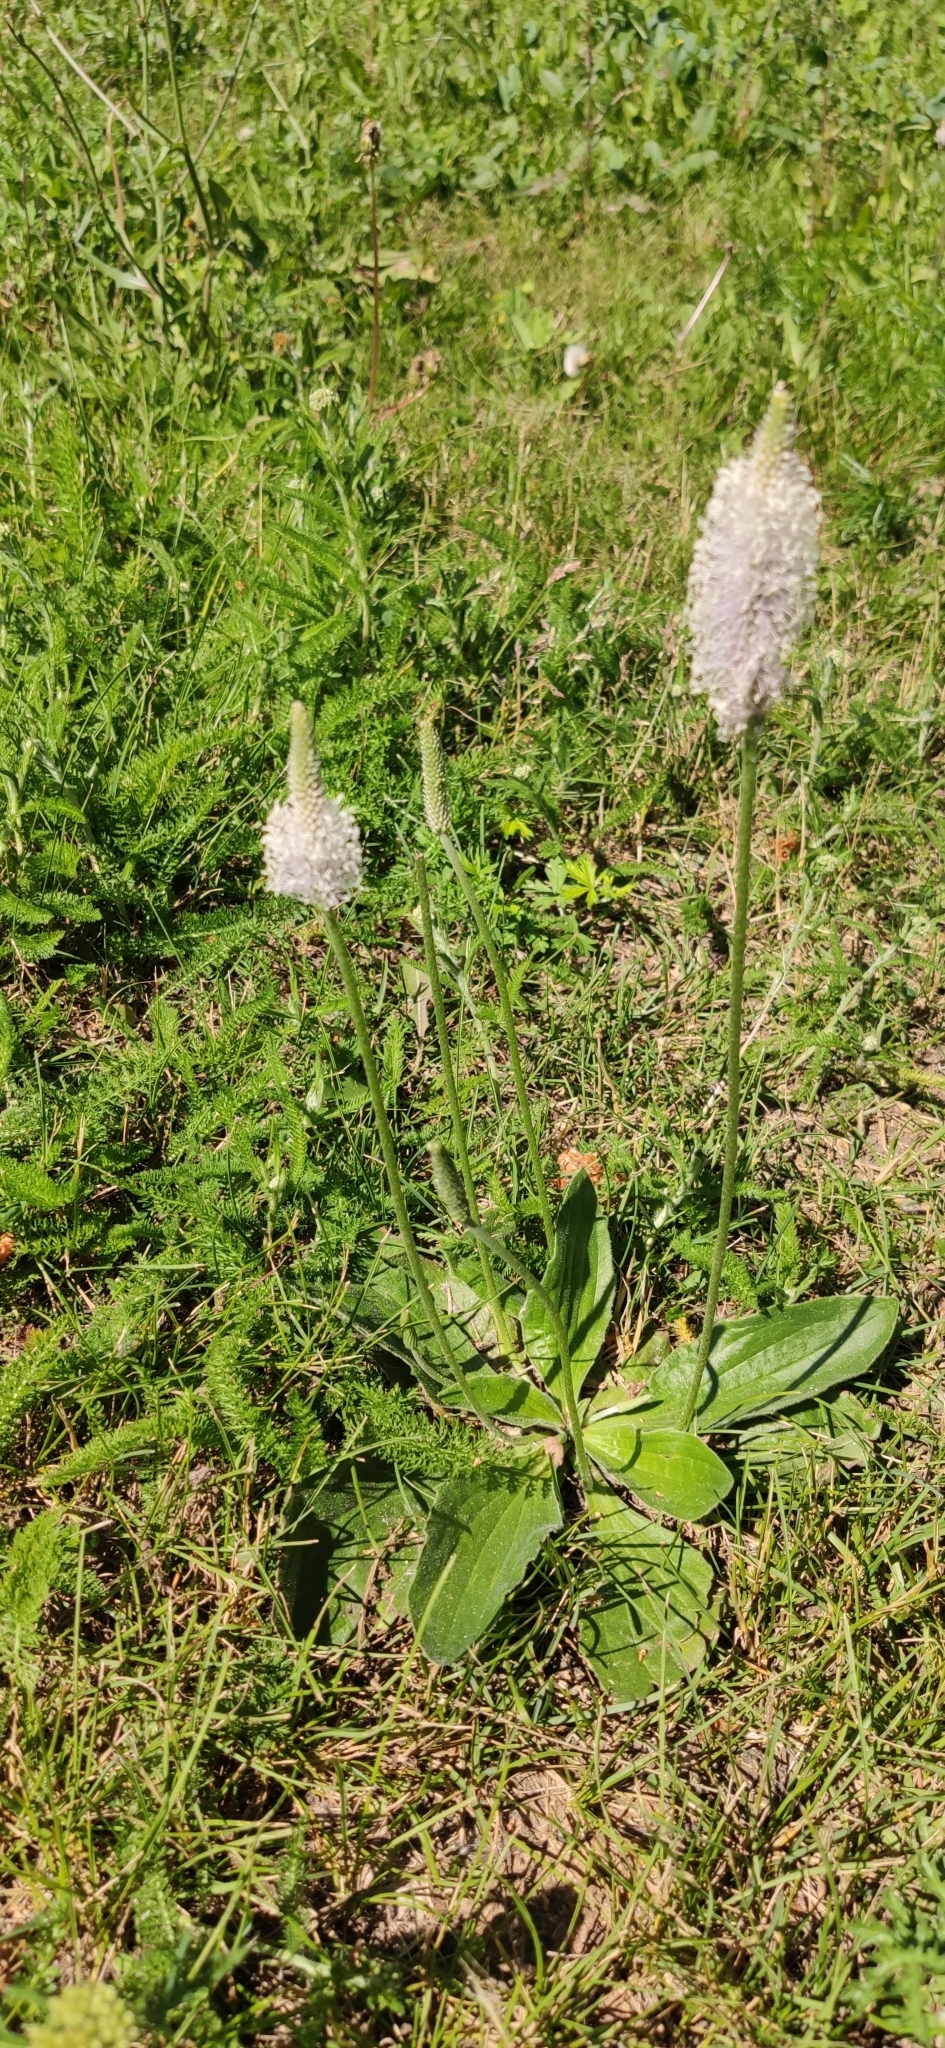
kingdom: Plantae
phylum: Tracheophyta
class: Magnoliopsida
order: Lamiales
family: Plantaginaceae
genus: Plantago
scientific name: Plantago media
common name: Hoary plantain
